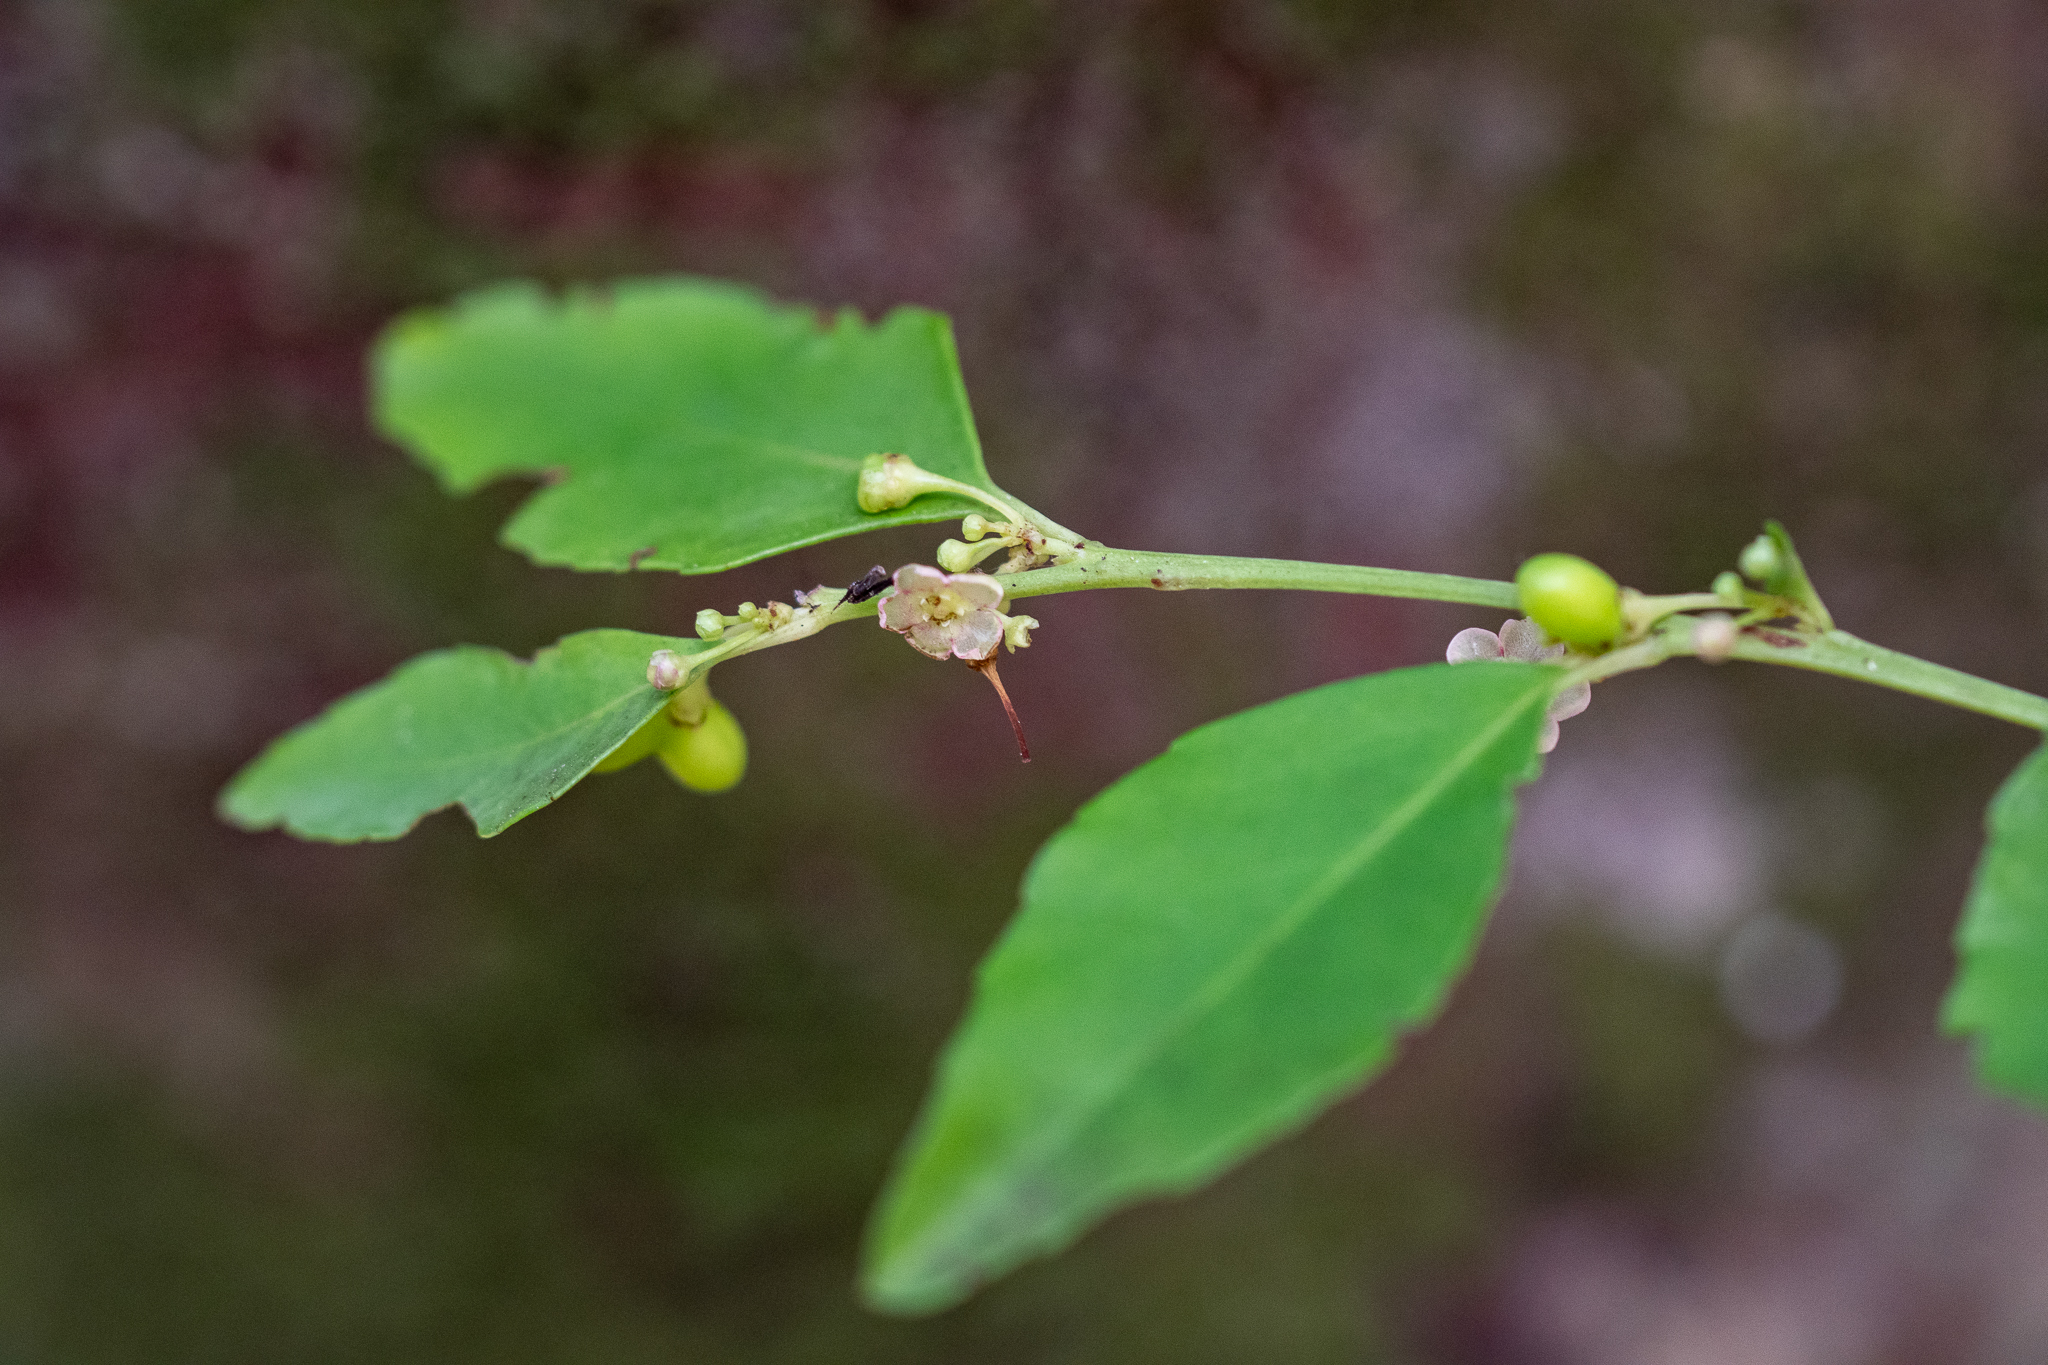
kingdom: Plantae
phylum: Tracheophyta
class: Magnoliopsida
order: Celastrales
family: Celastraceae
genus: Gymnosporia
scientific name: Gymnosporia acuminata
